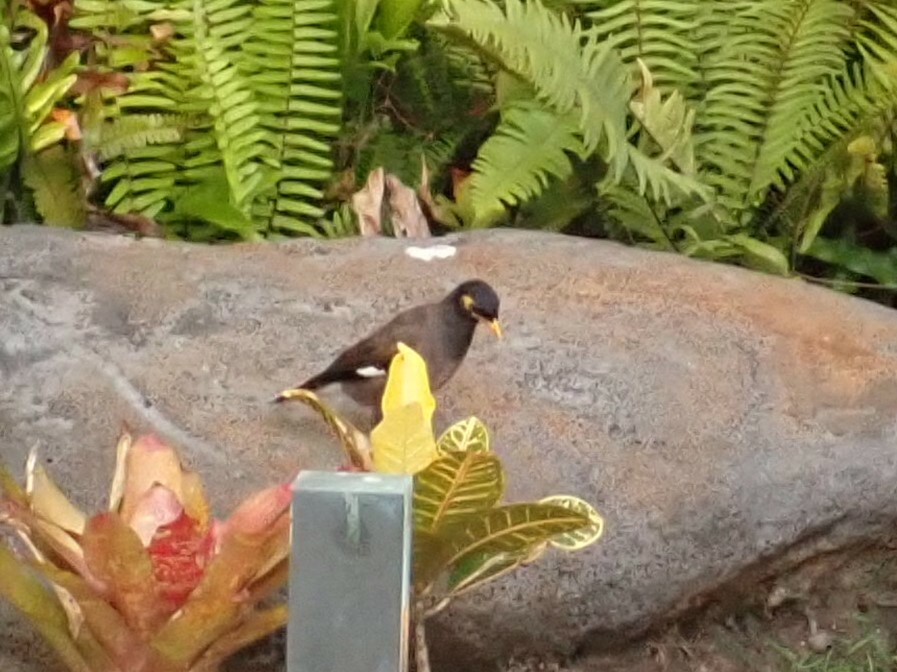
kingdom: Animalia
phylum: Chordata
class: Aves
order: Passeriformes
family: Sturnidae
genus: Acridotheres
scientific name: Acridotheres tristis
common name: Common myna
